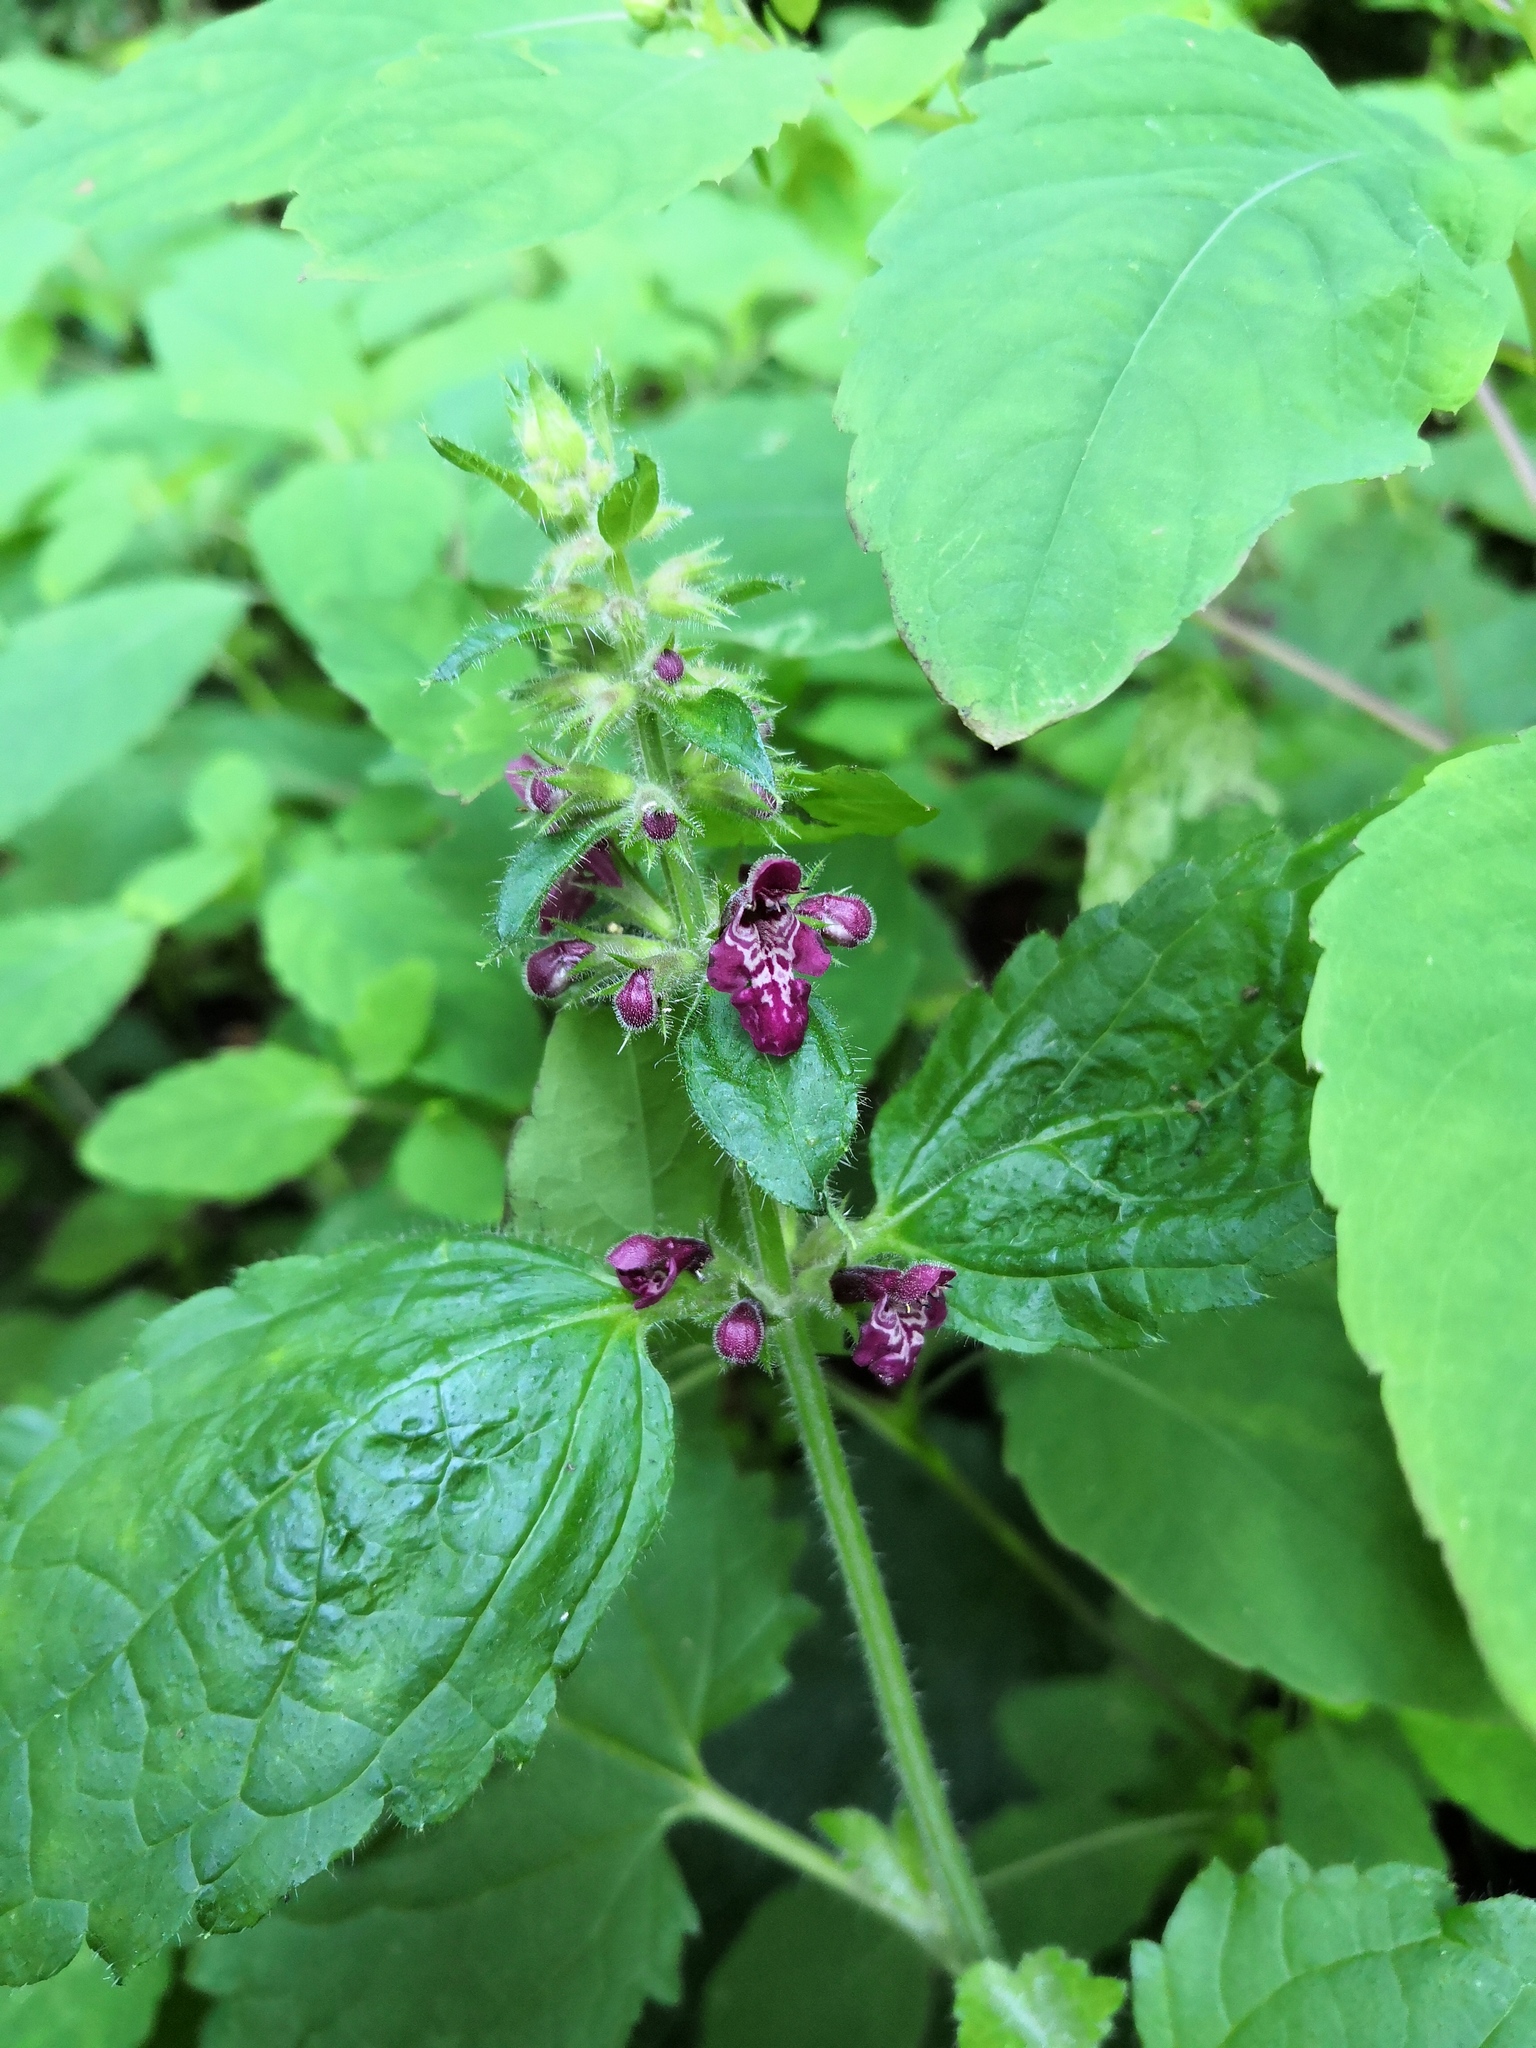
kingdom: Plantae
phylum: Tracheophyta
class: Magnoliopsida
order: Lamiales
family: Lamiaceae
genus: Stachys
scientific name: Stachys sylvatica
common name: Hedge woundwort
